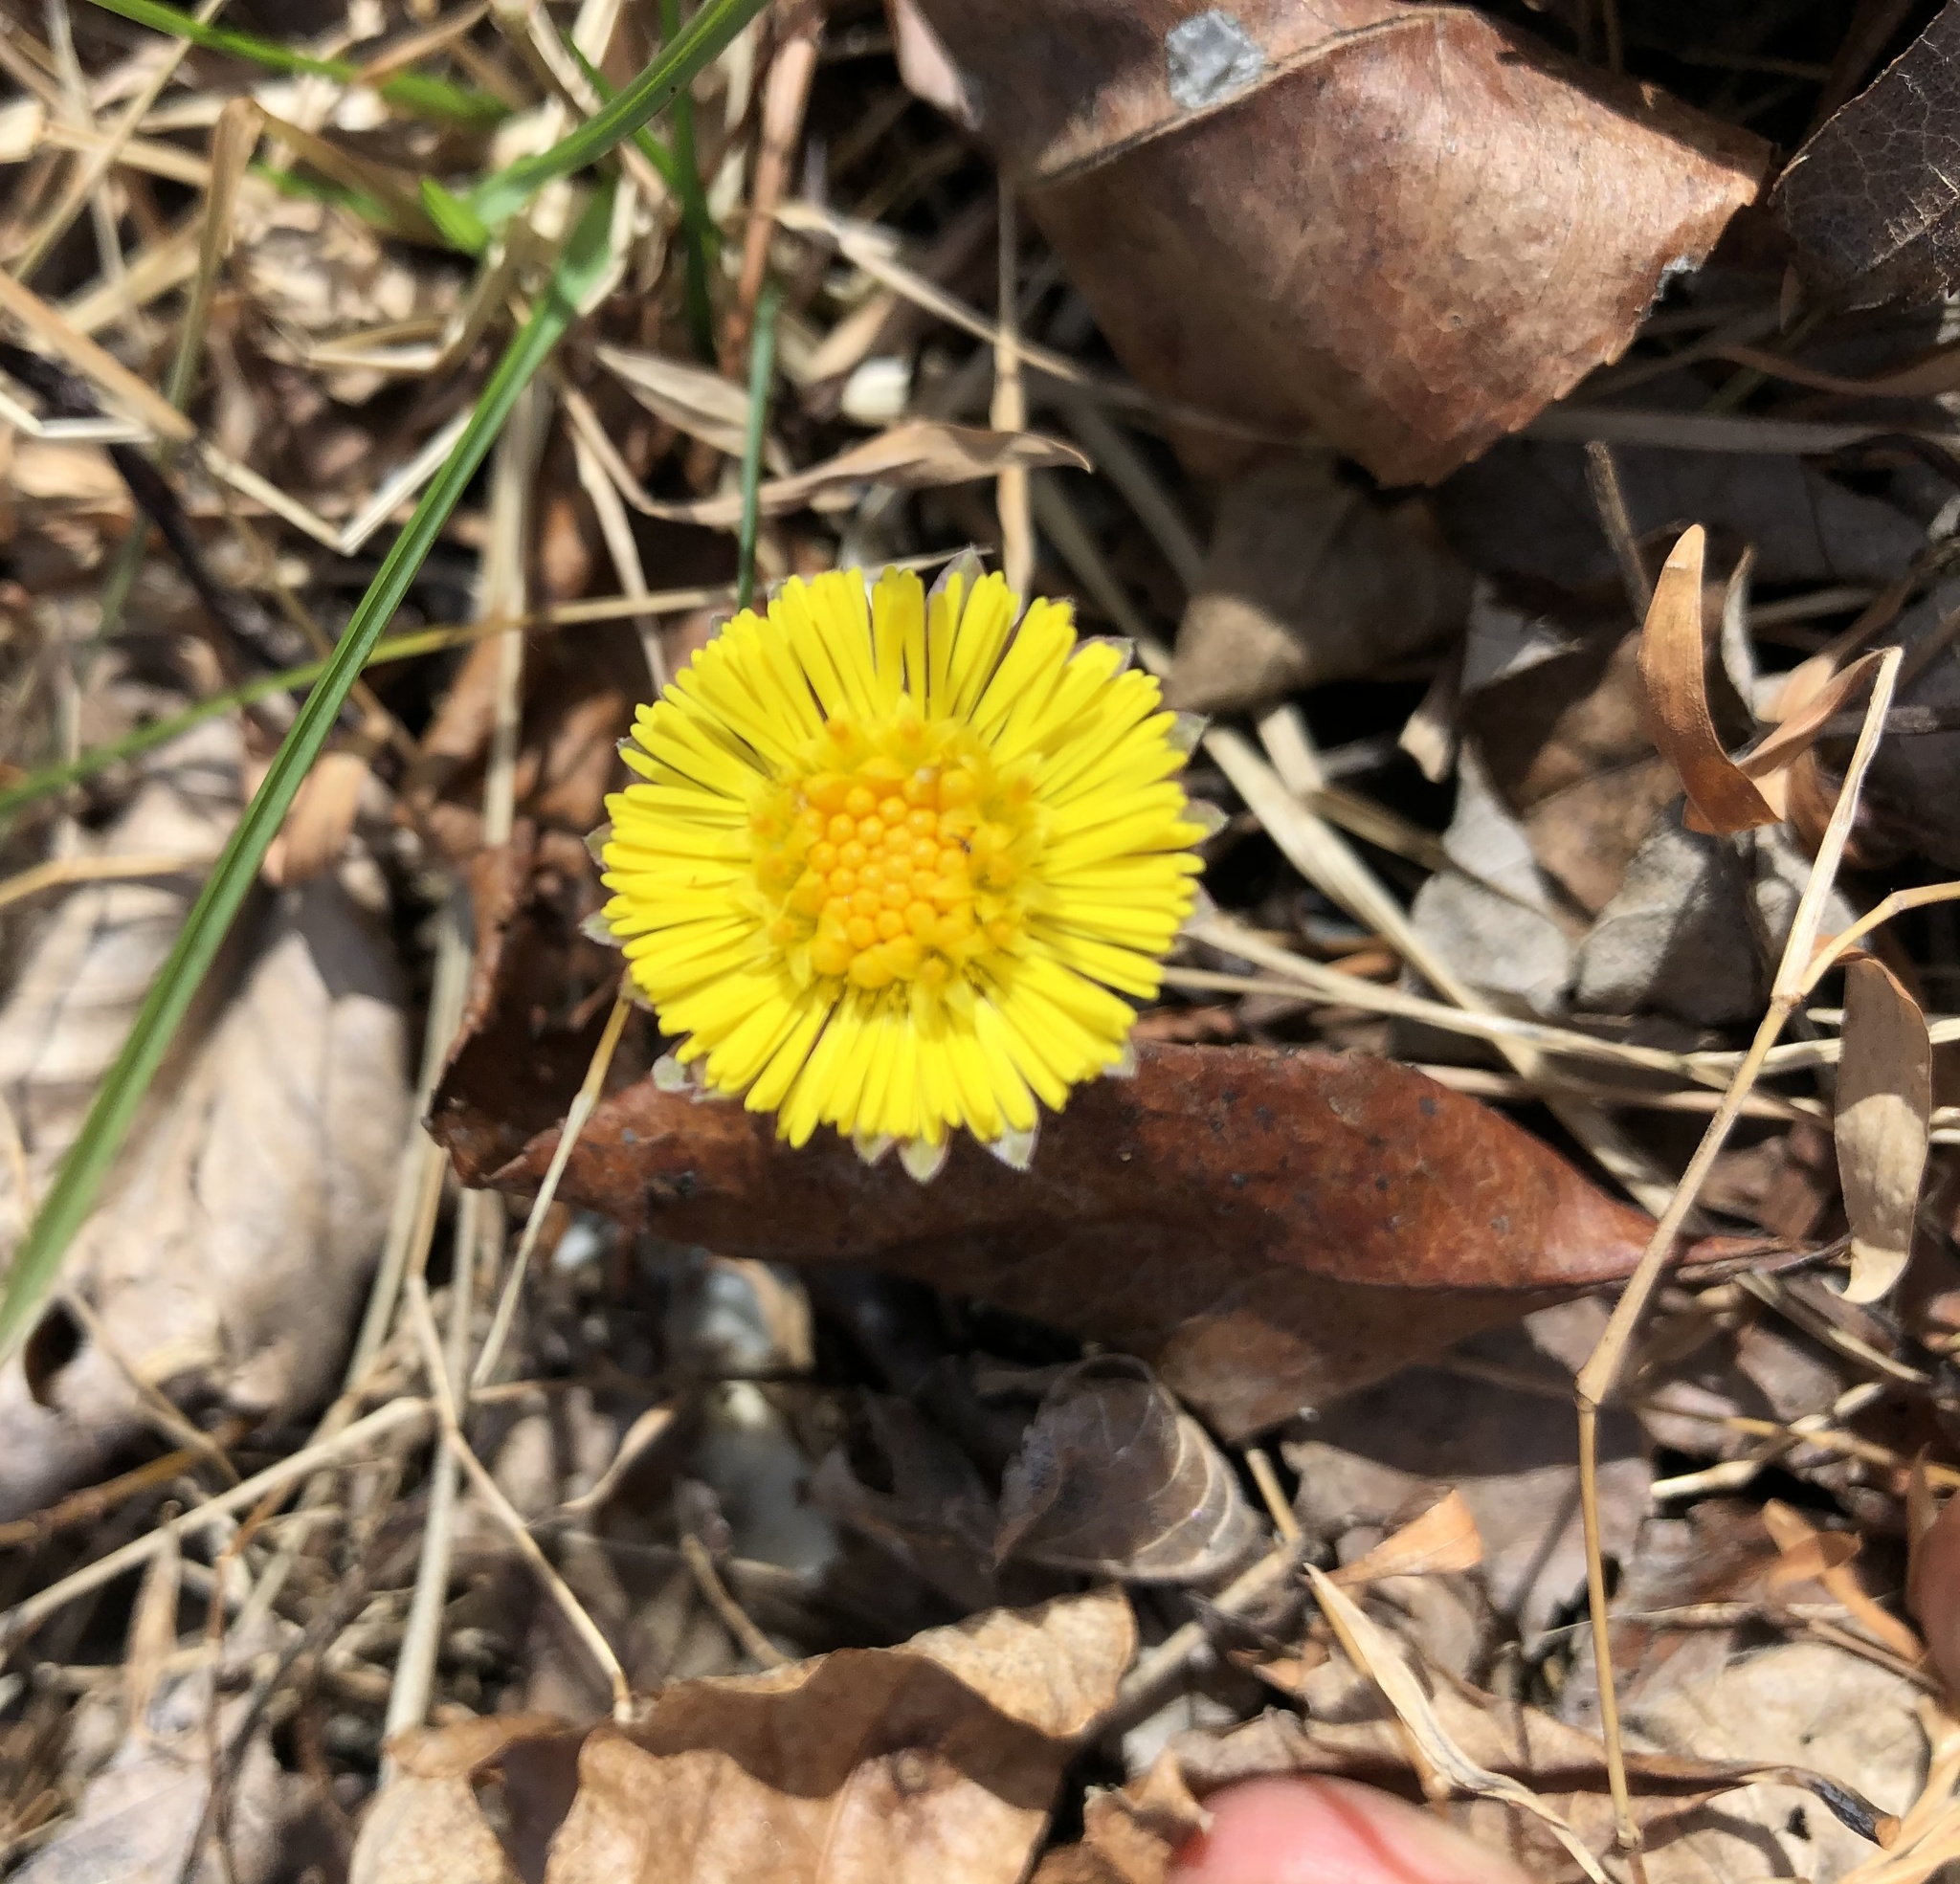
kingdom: Plantae
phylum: Tracheophyta
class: Magnoliopsida
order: Asterales
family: Asteraceae
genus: Tussilago
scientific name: Tussilago farfara
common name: Coltsfoot
